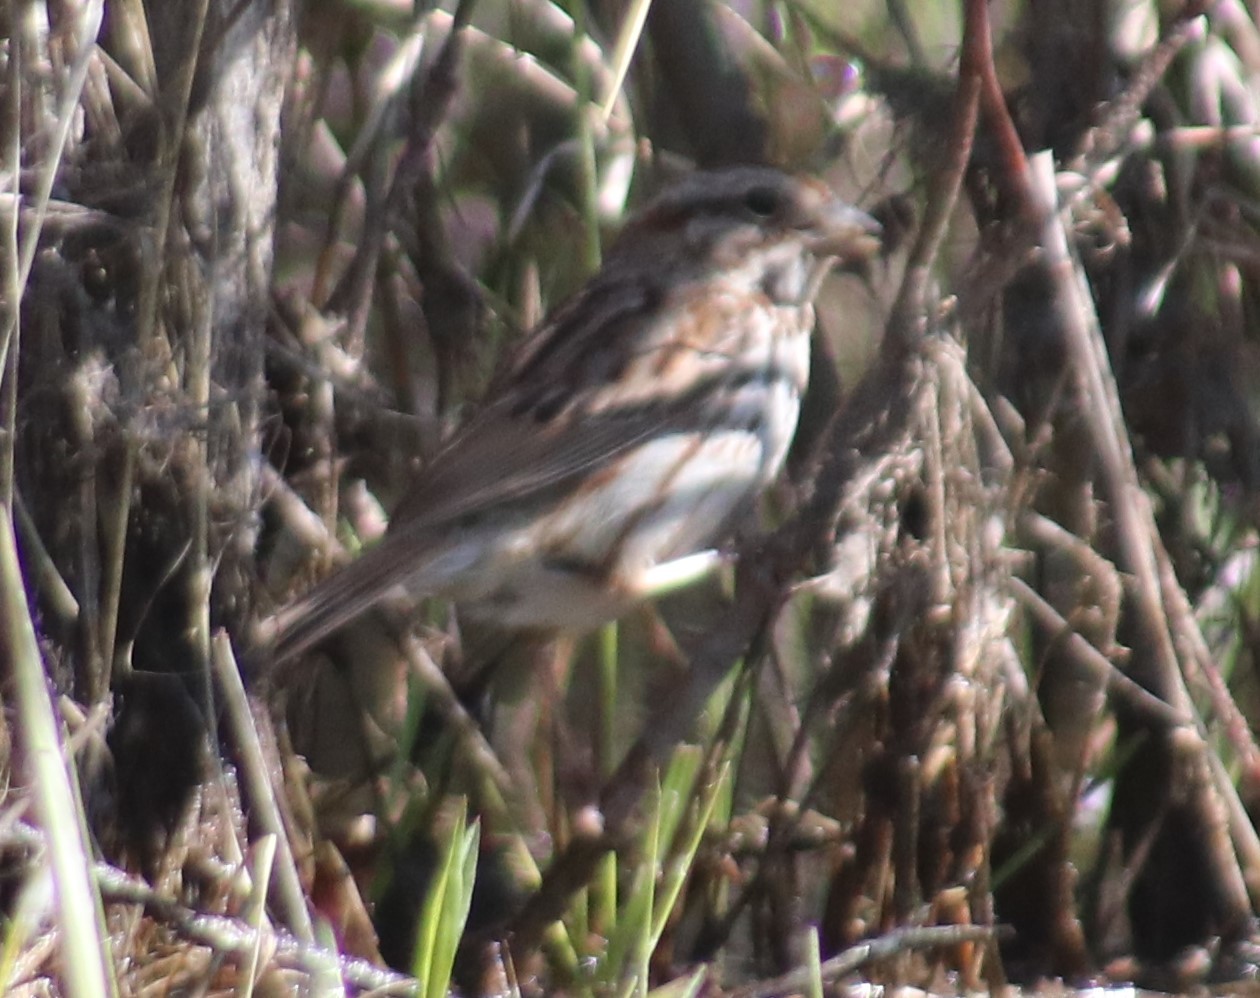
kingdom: Animalia
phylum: Chordata
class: Aves
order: Passeriformes
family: Passerellidae
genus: Melospiza
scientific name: Melospiza melodia
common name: Song sparrow
